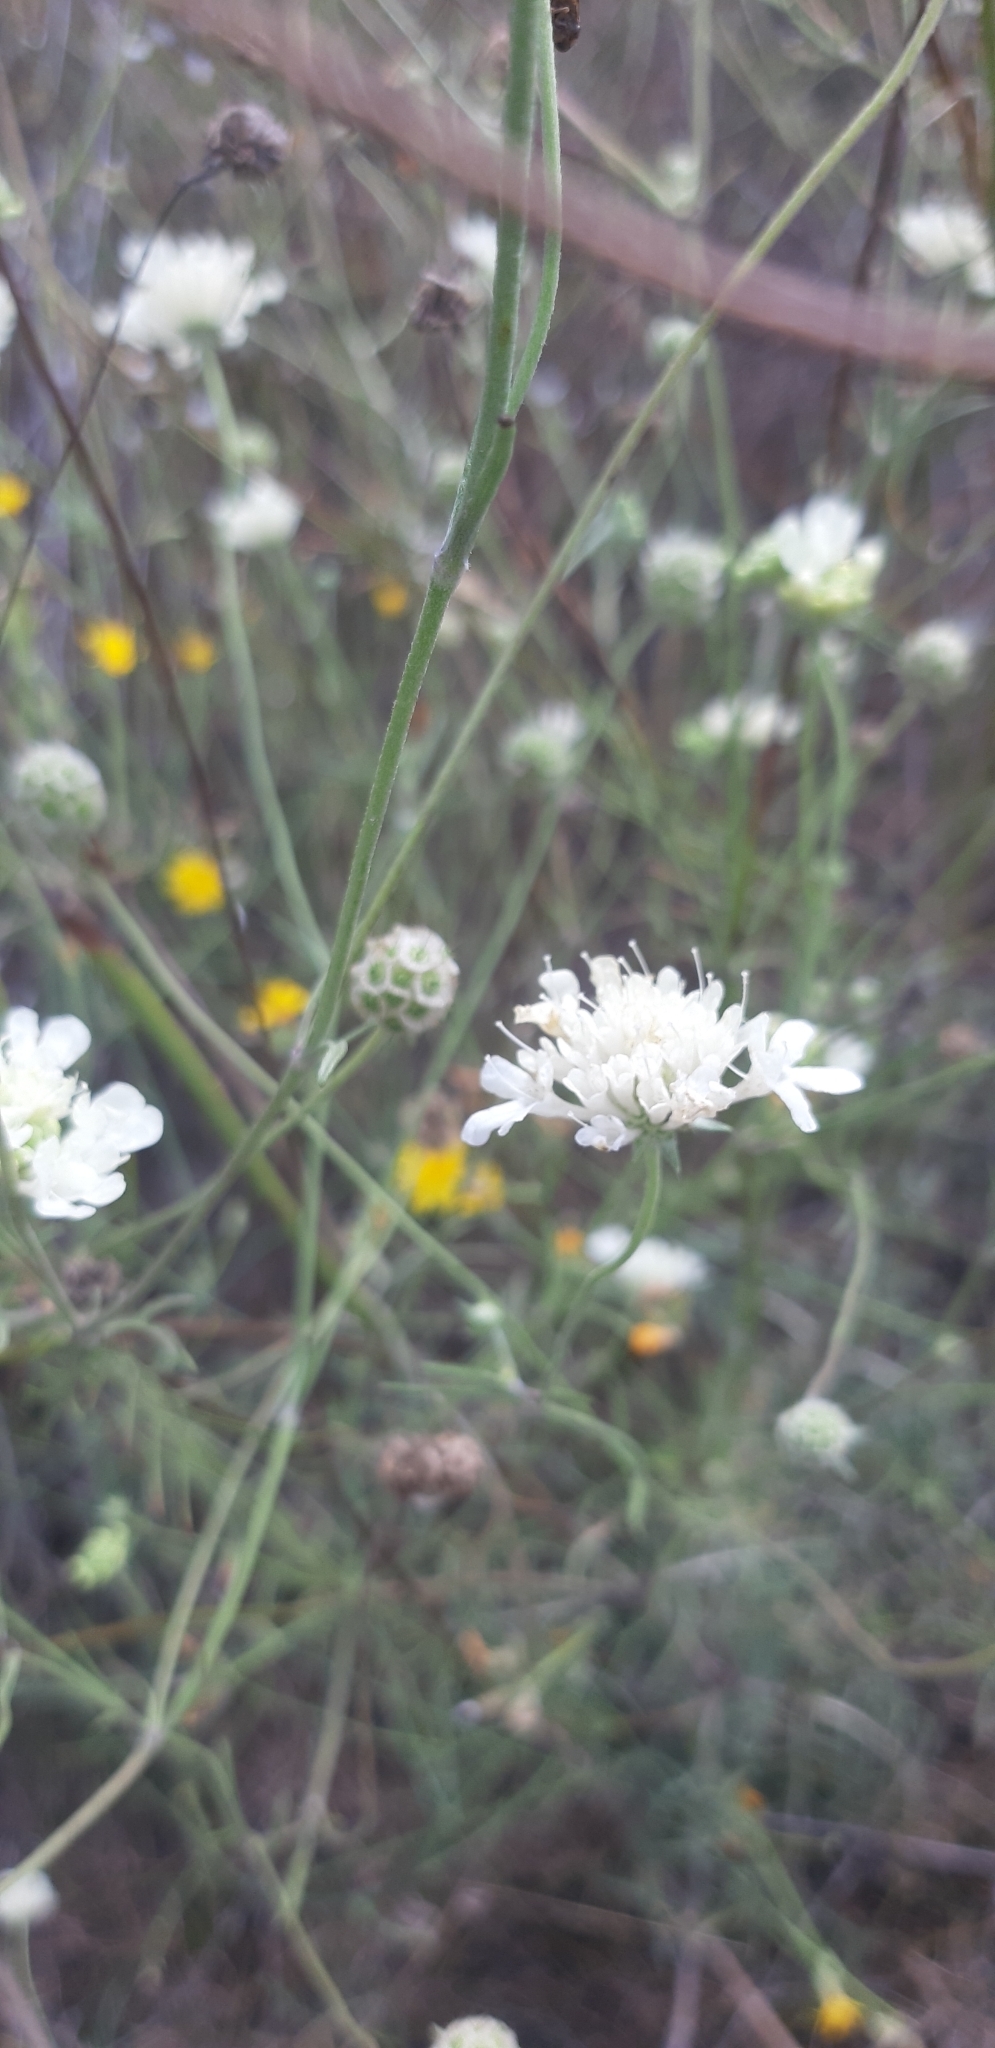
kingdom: Plantae
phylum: Tracheophyta
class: Magnoliopsida
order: Dipsacales
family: Caprifoliaceae
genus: Scabiosa
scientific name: Scabiosa ochroleuca
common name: Cream pincushions
